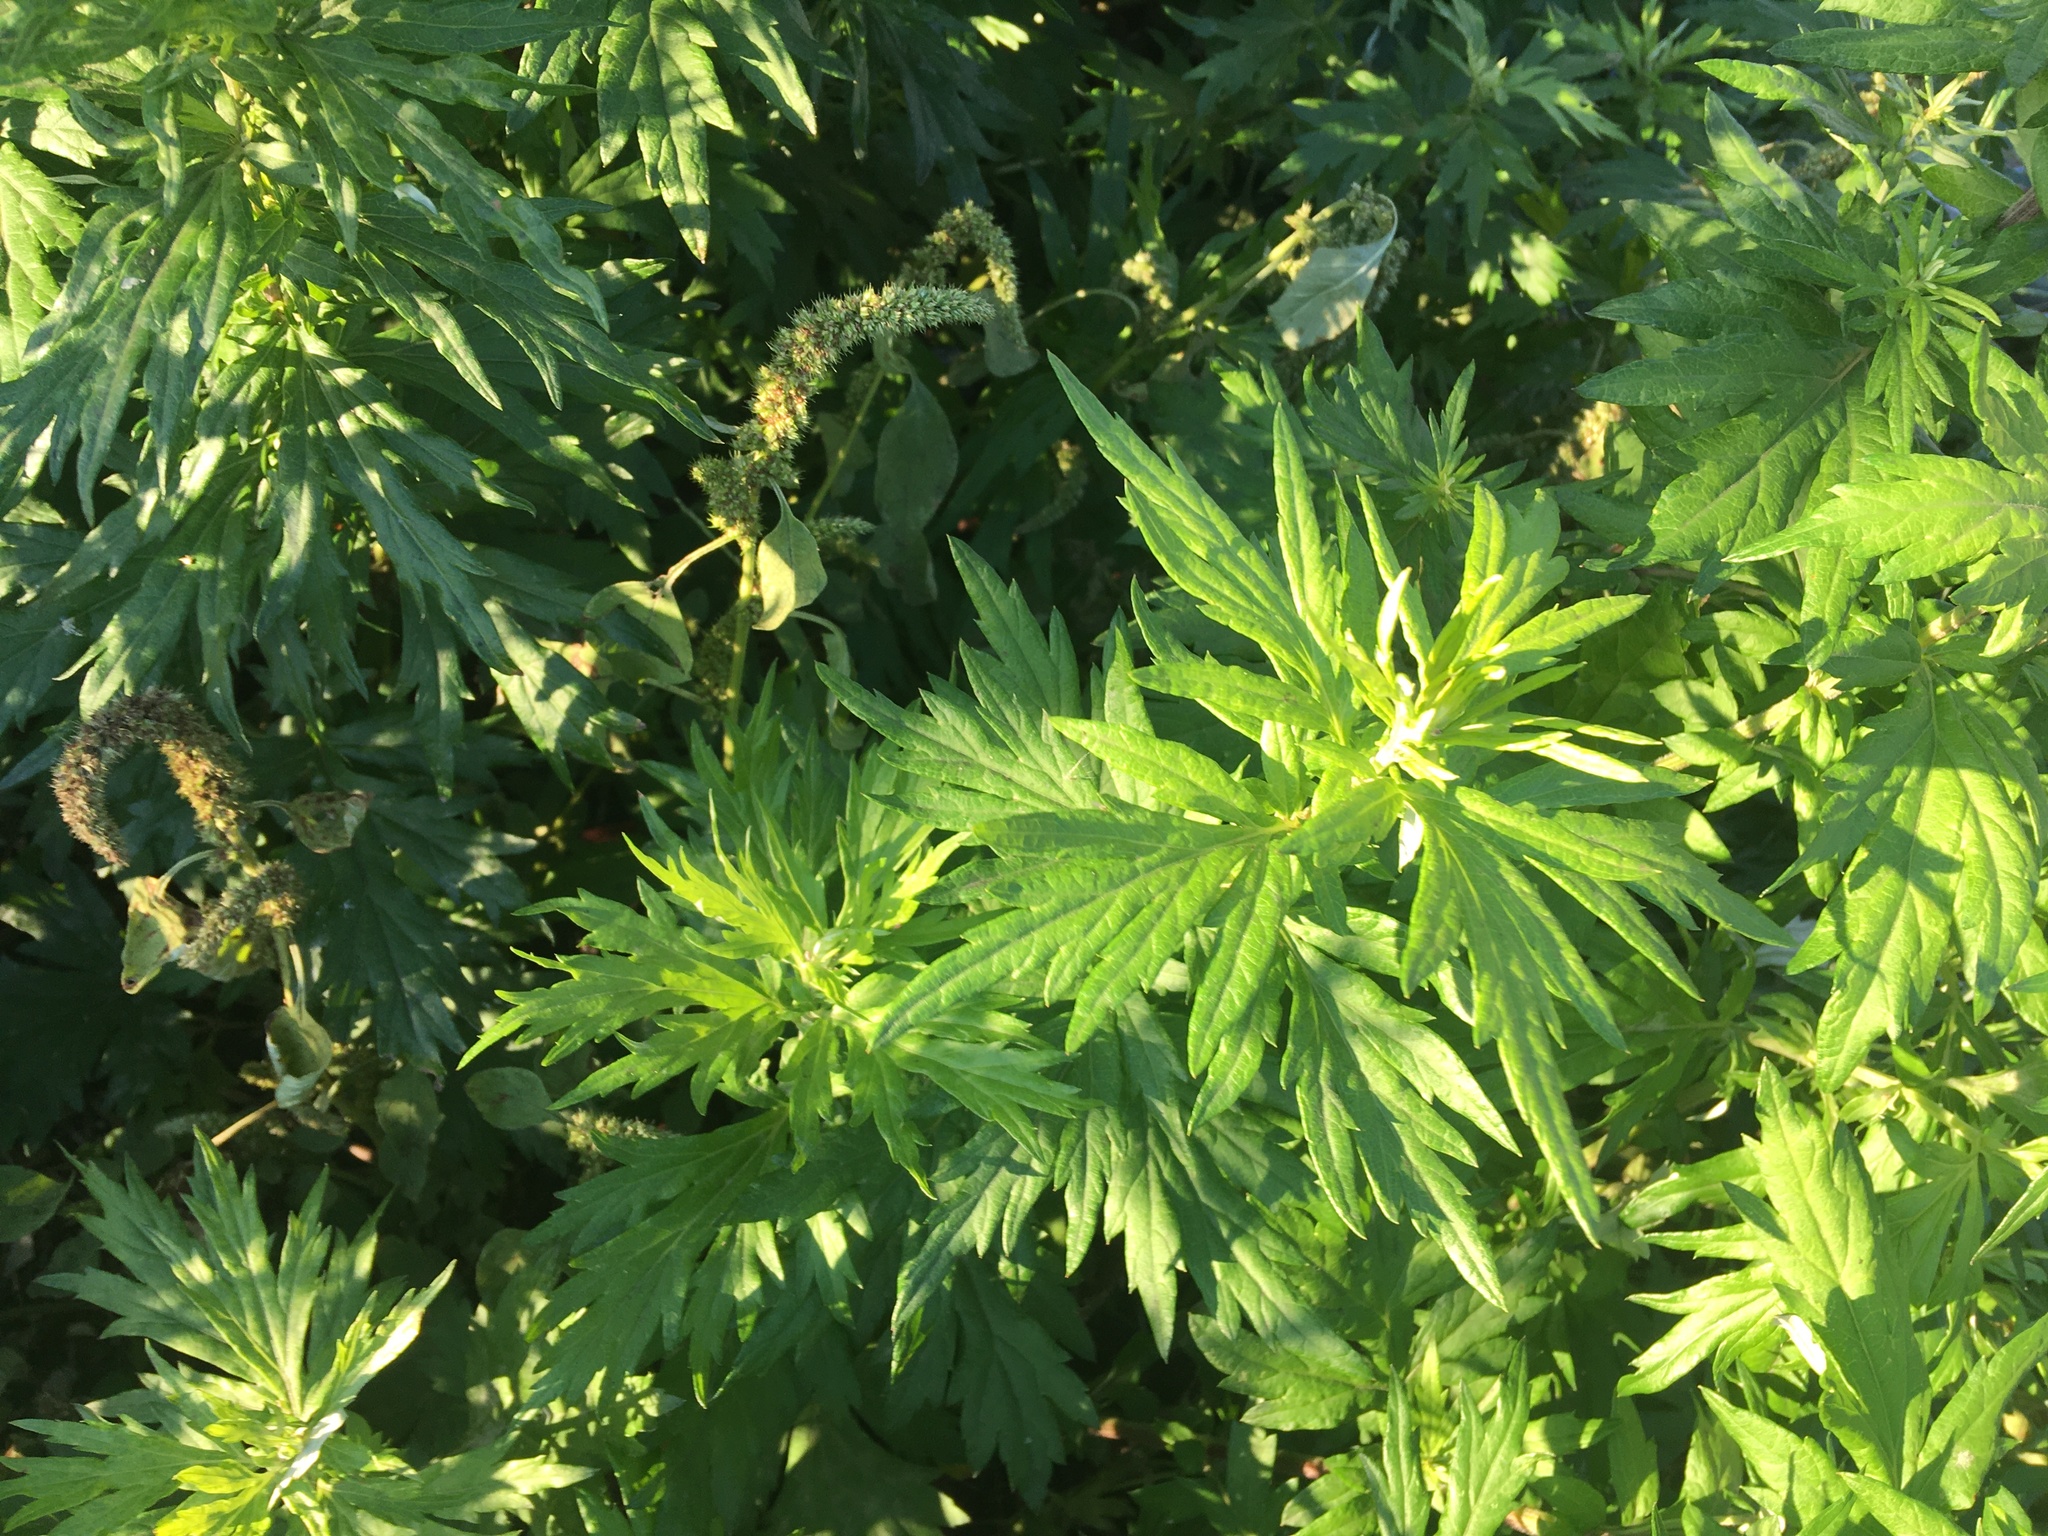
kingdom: Plantae
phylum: Tracheophyta
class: Magnoliopsida
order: Asterales
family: Asteraceae
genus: Artemisia
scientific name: Artemisia vulgaris
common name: Mugwort
